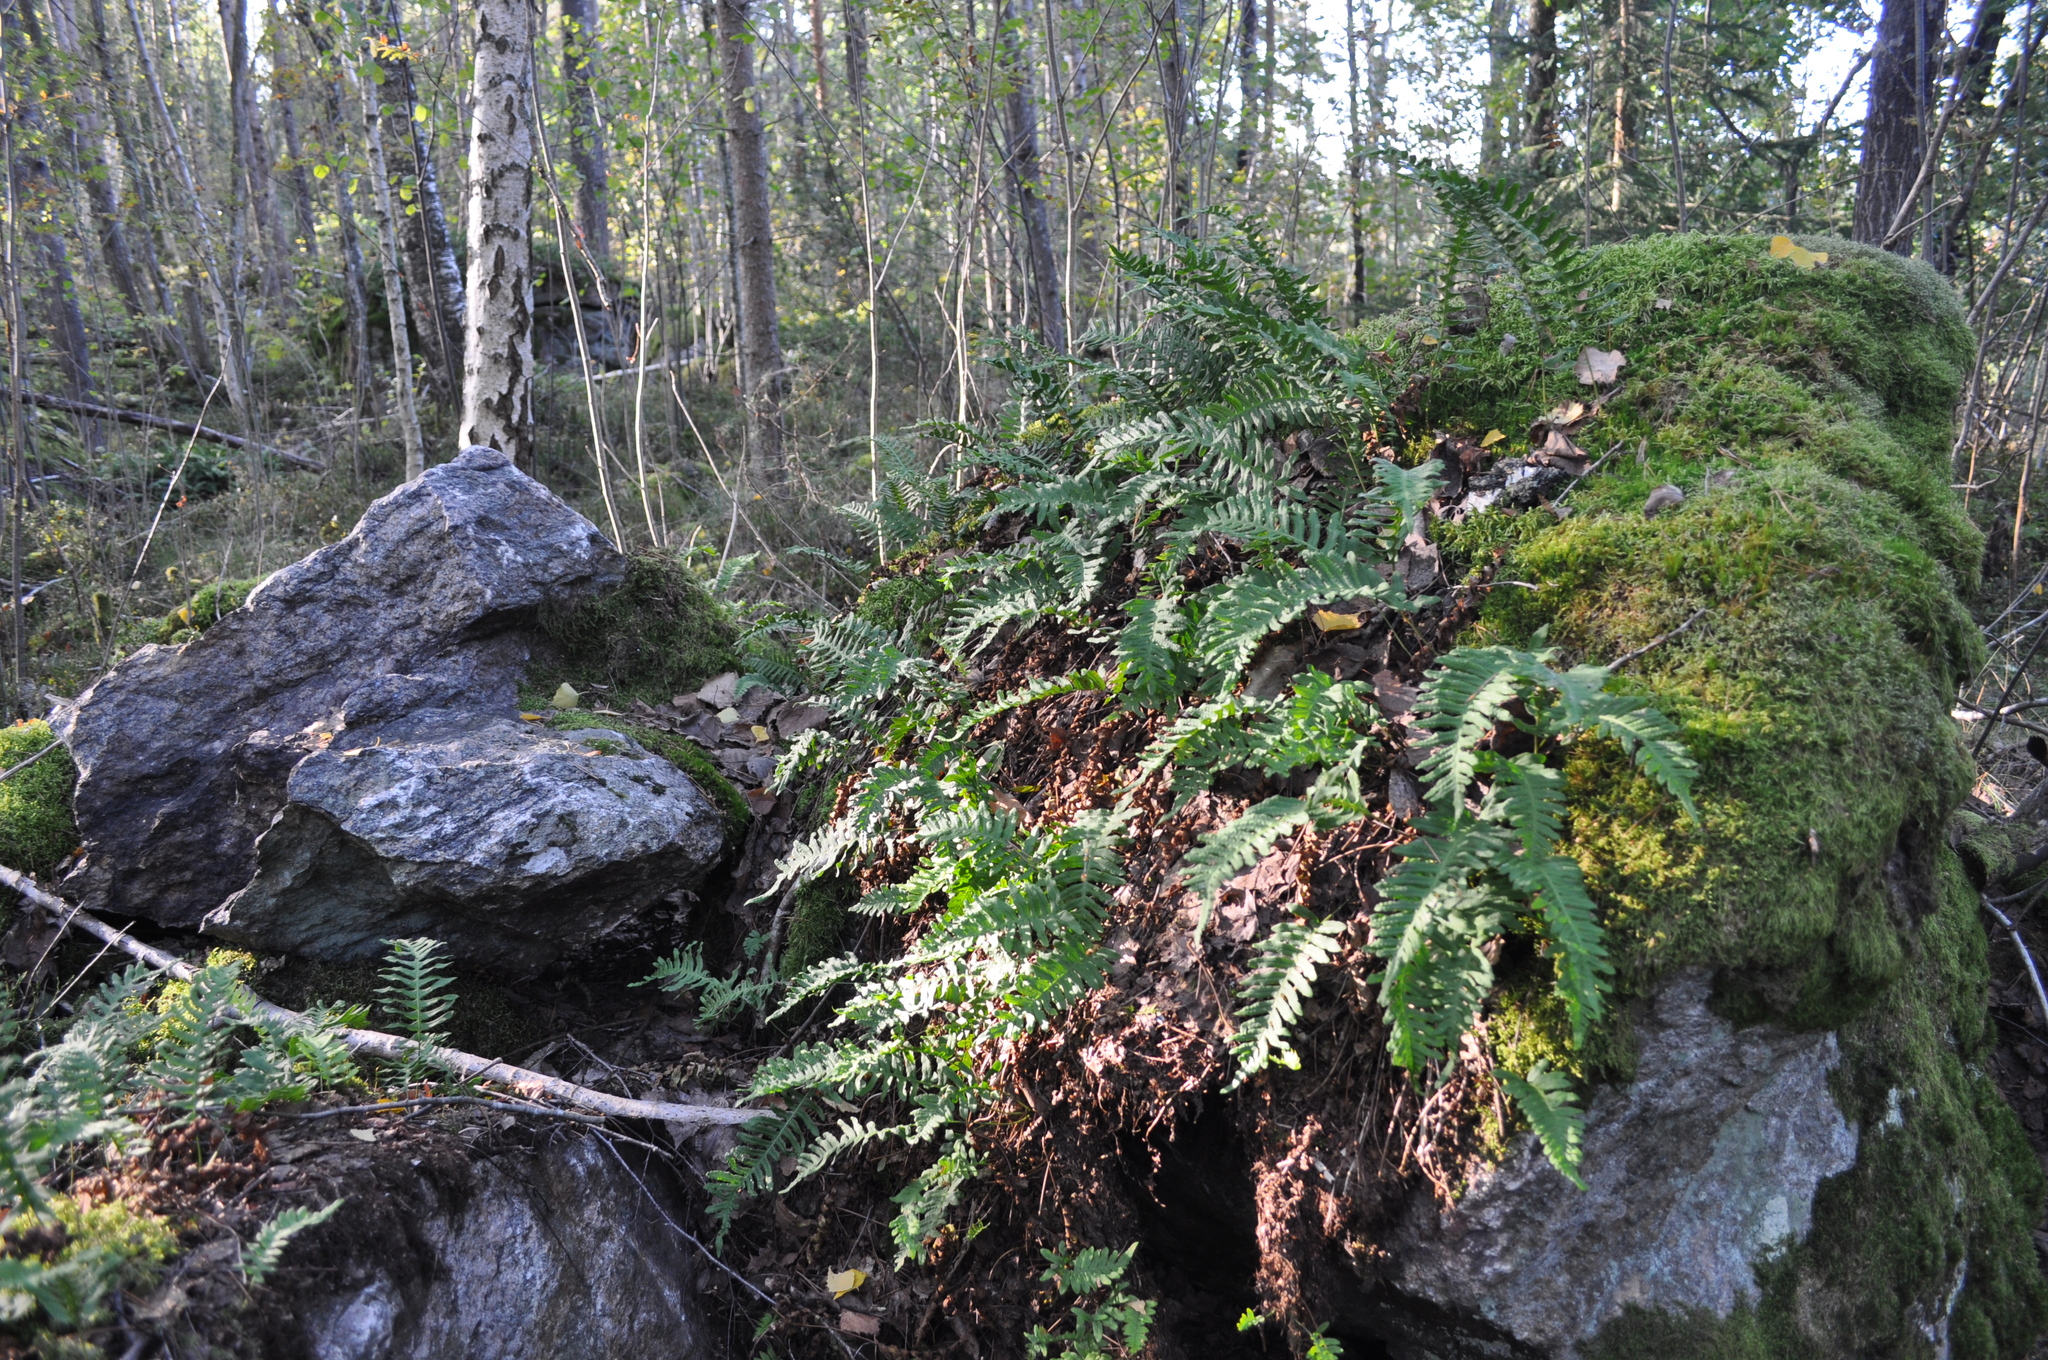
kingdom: Plantae
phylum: Tracheophyta
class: Polypodiopsida
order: Polypodiales
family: Polypodiaceae
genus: Polypodium
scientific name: Polypodium vulgare
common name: Common polypody
